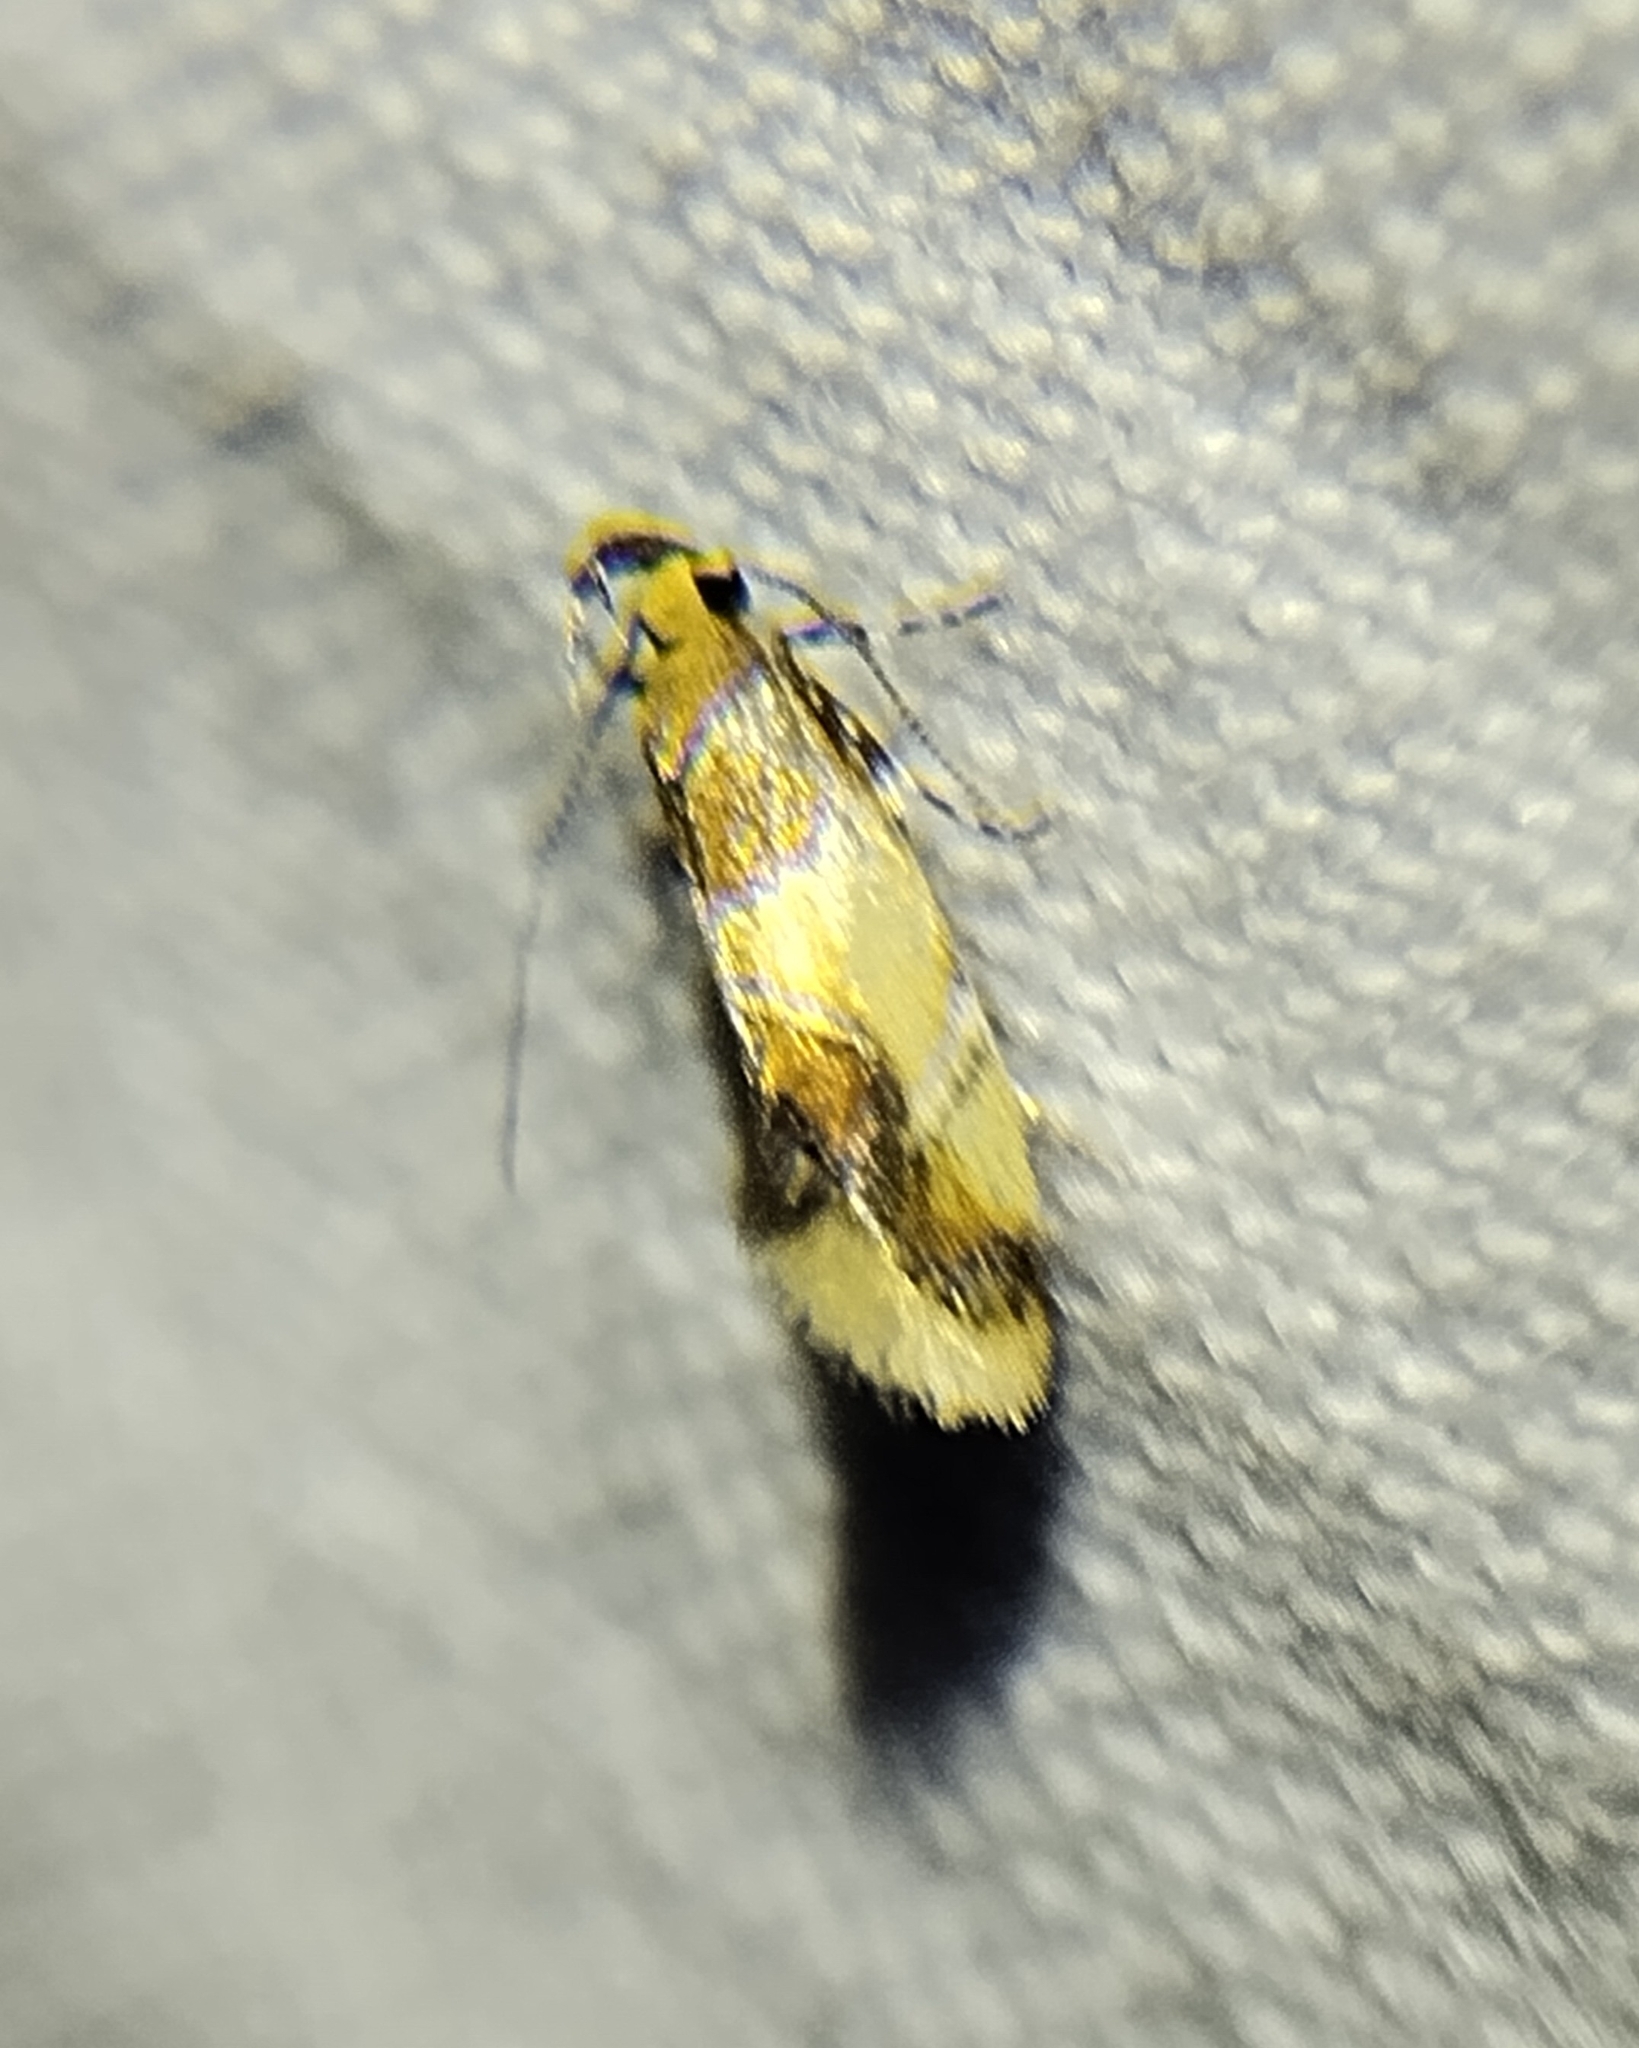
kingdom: Animalia
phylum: Arthropoda
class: Insecta
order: Lepidoptera
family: Oecophoridae
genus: Callima
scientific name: Callima argenticinctella
